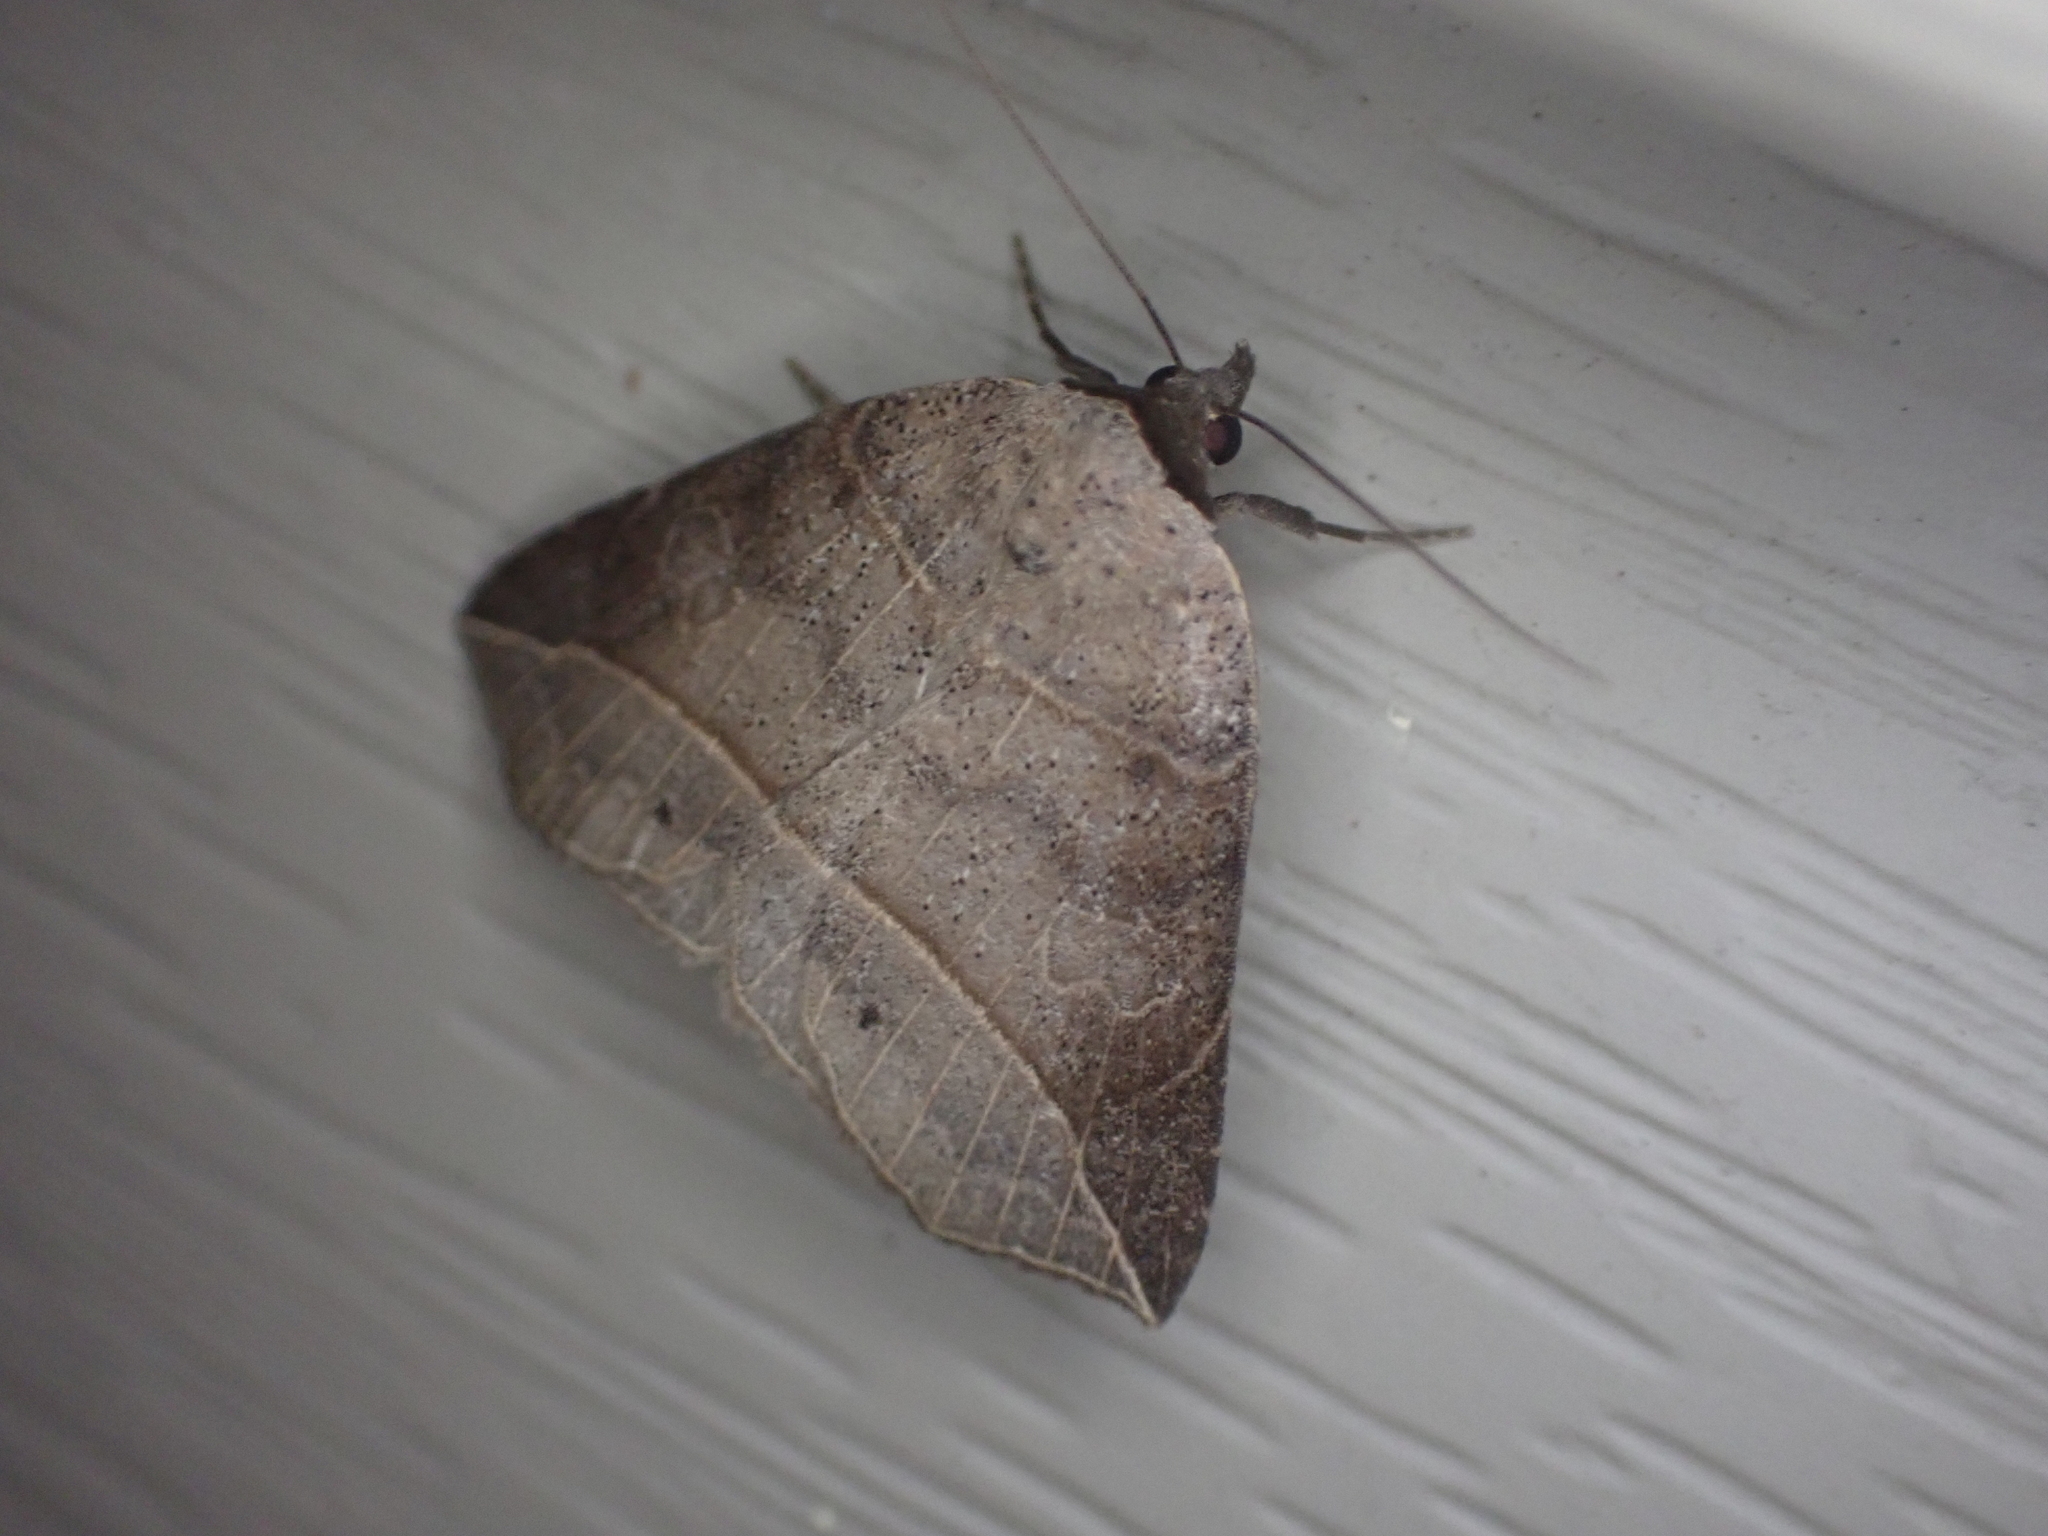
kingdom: Animalia
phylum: Arthropoda
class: Insecta
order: Lepidoptera
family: Erebidae
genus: Isogona
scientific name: Isogona tenuis
